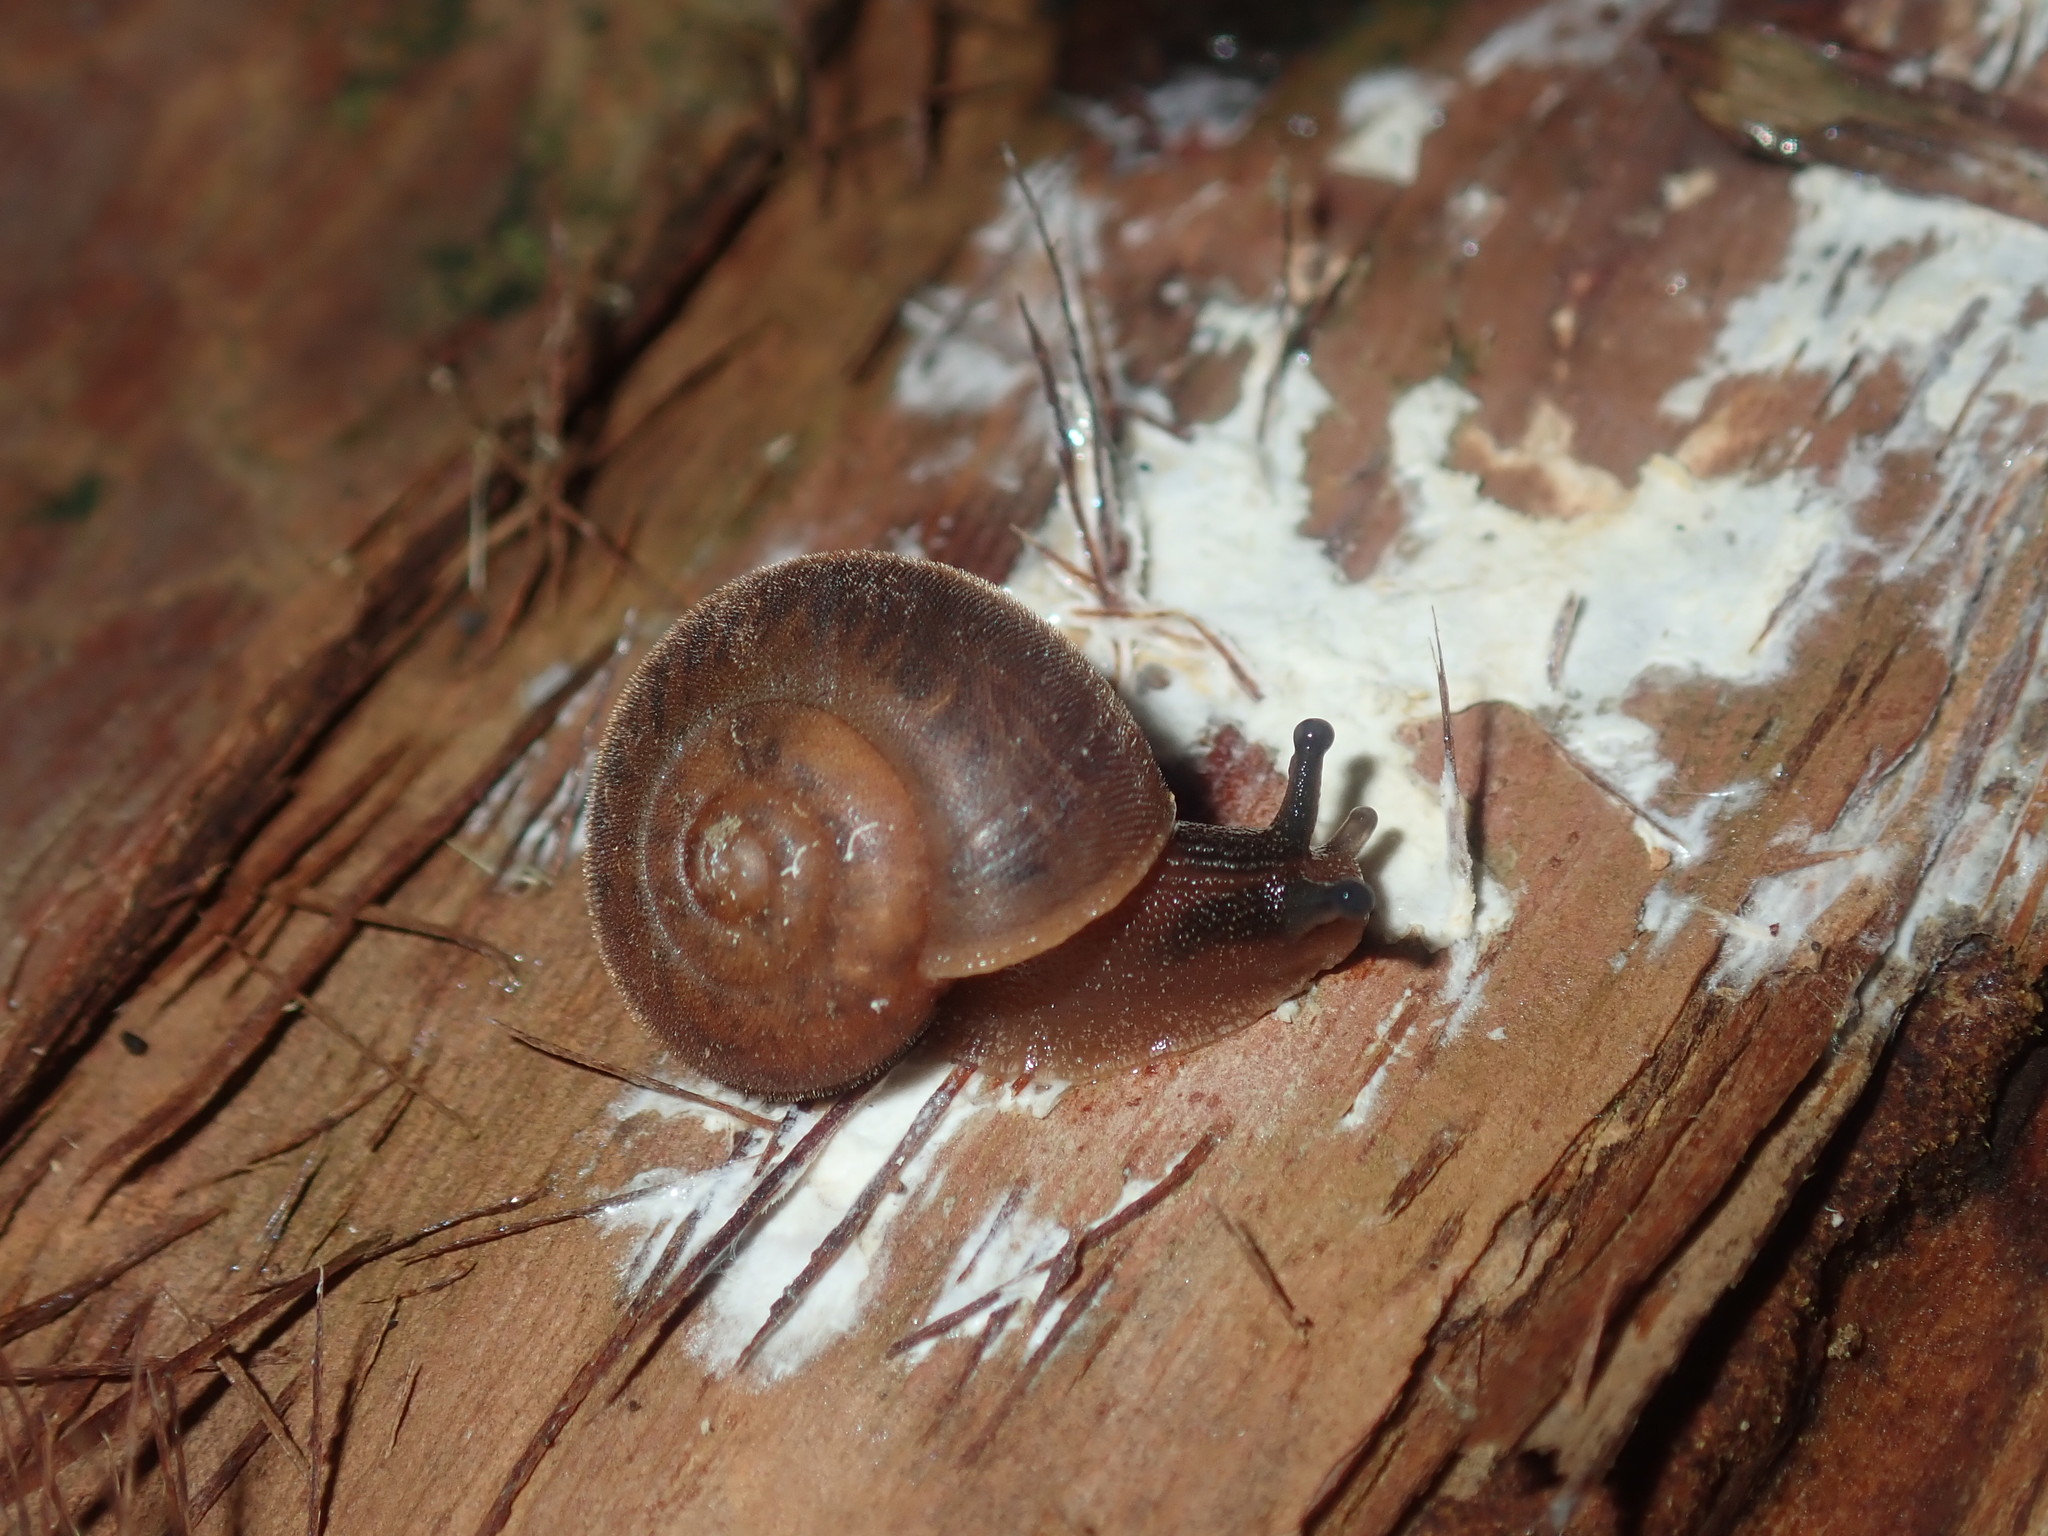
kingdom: Animalia
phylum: Mollusca
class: Gastropoda
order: Stylommatophora
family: Camaenidae
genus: Austrochloritis
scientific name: Austrochloritis laurieton
